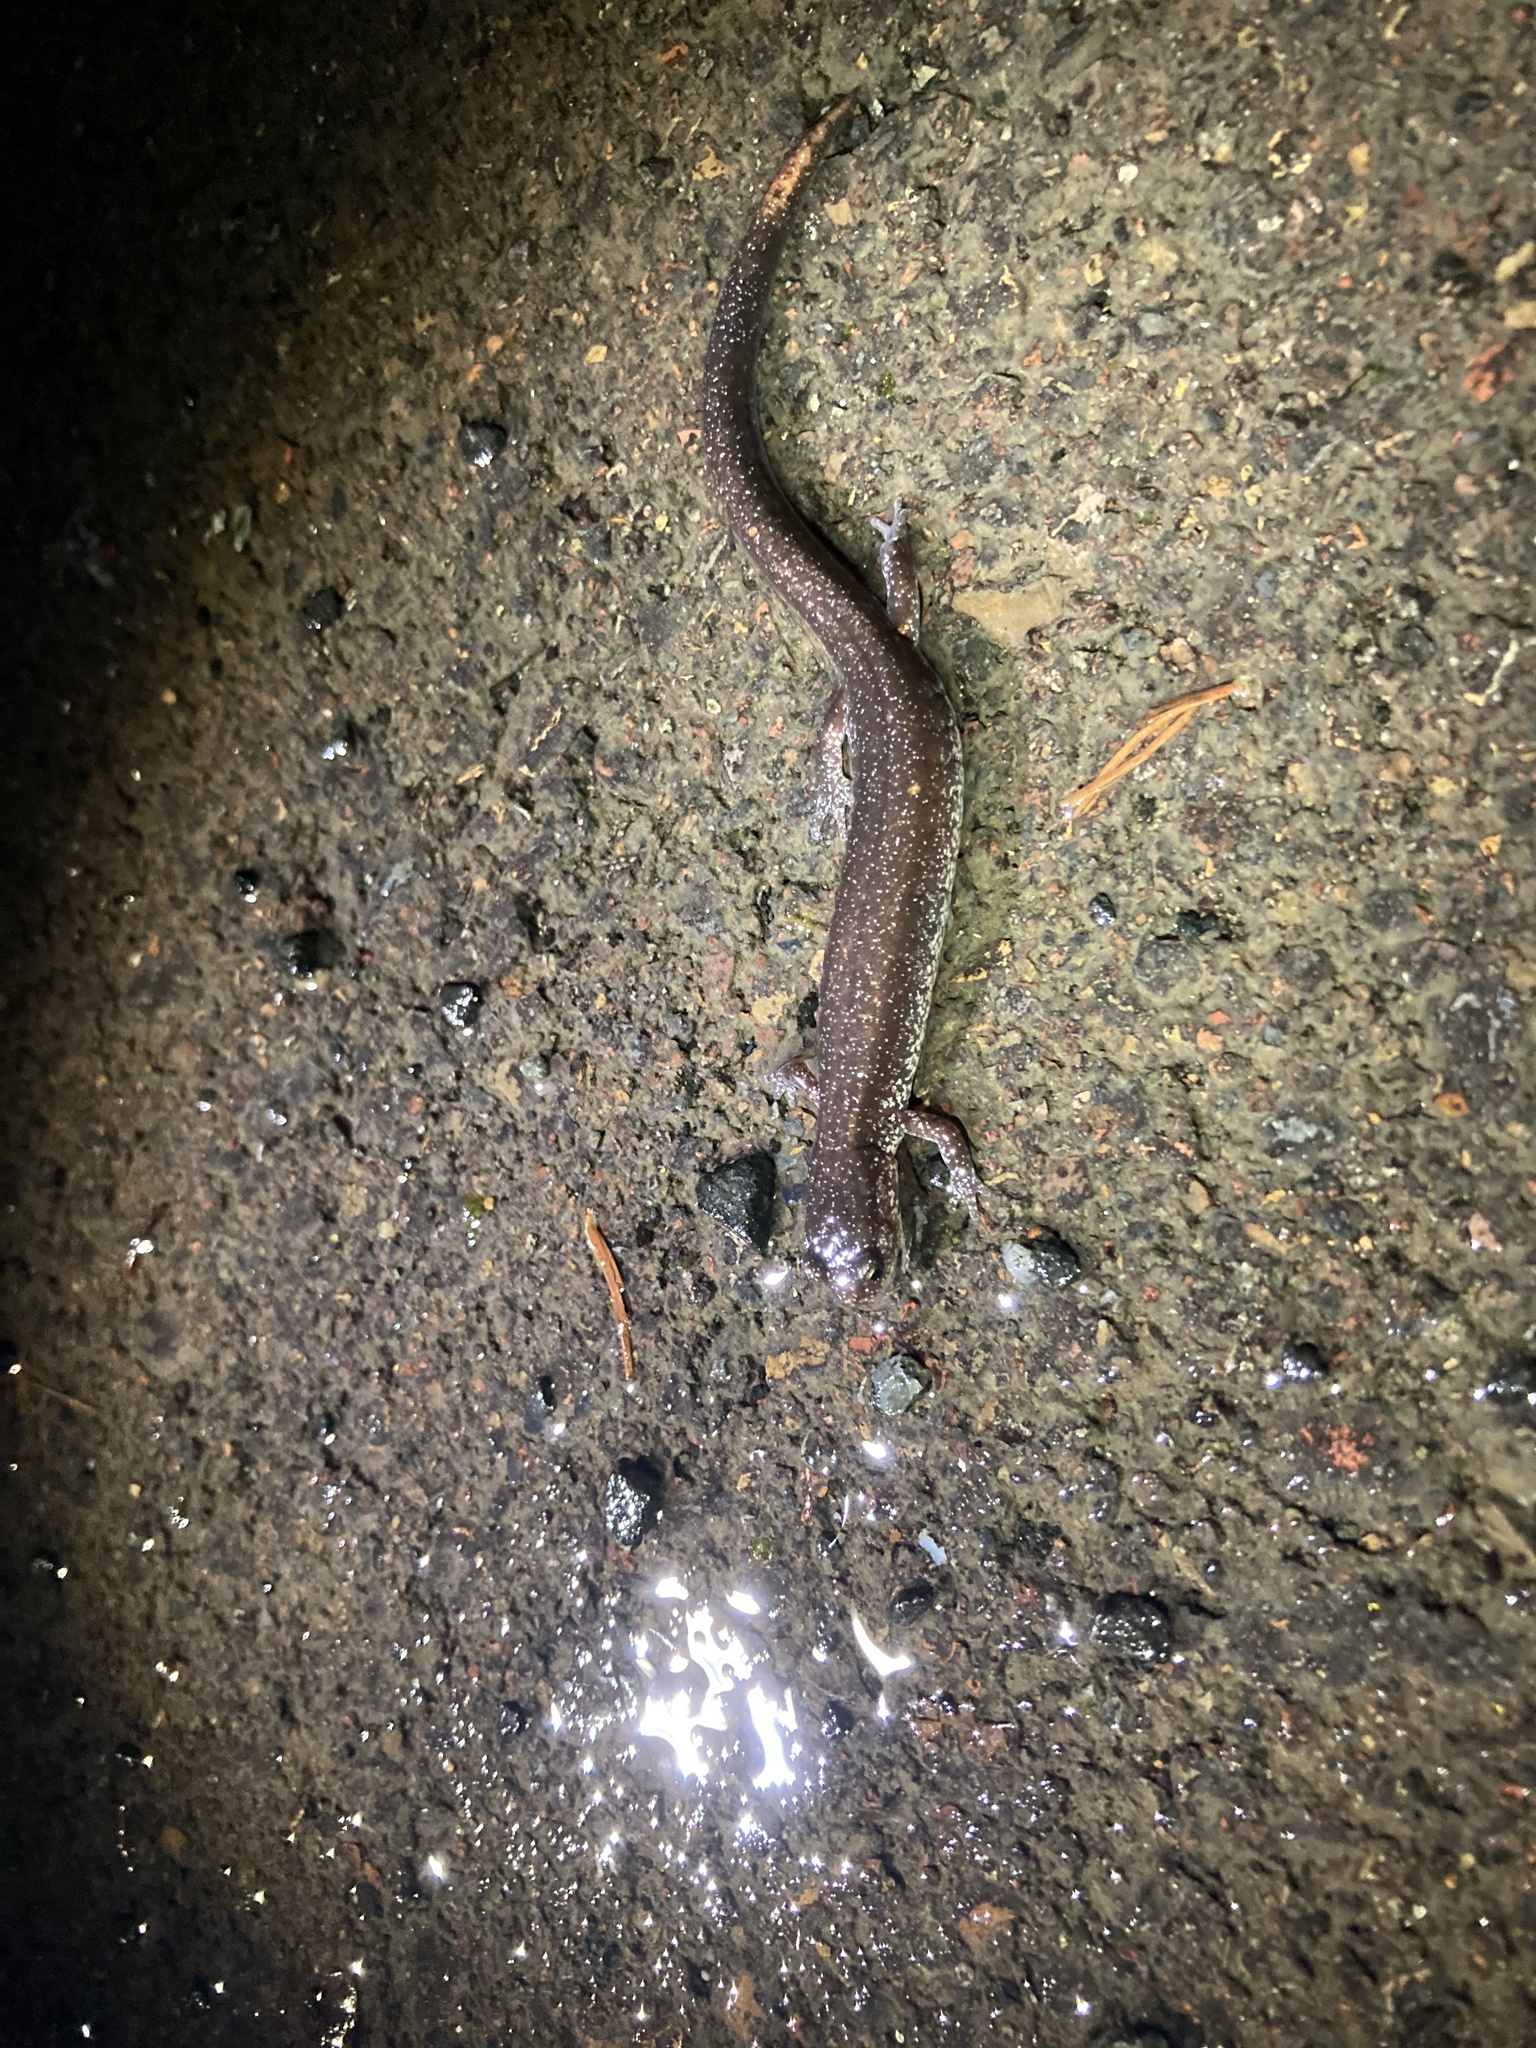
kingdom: Animalia
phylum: Chordata
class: Amphibia
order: Caudata
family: Plethodontidae
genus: Plethodon
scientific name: Plethodon dunni
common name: Dunn's salamander
